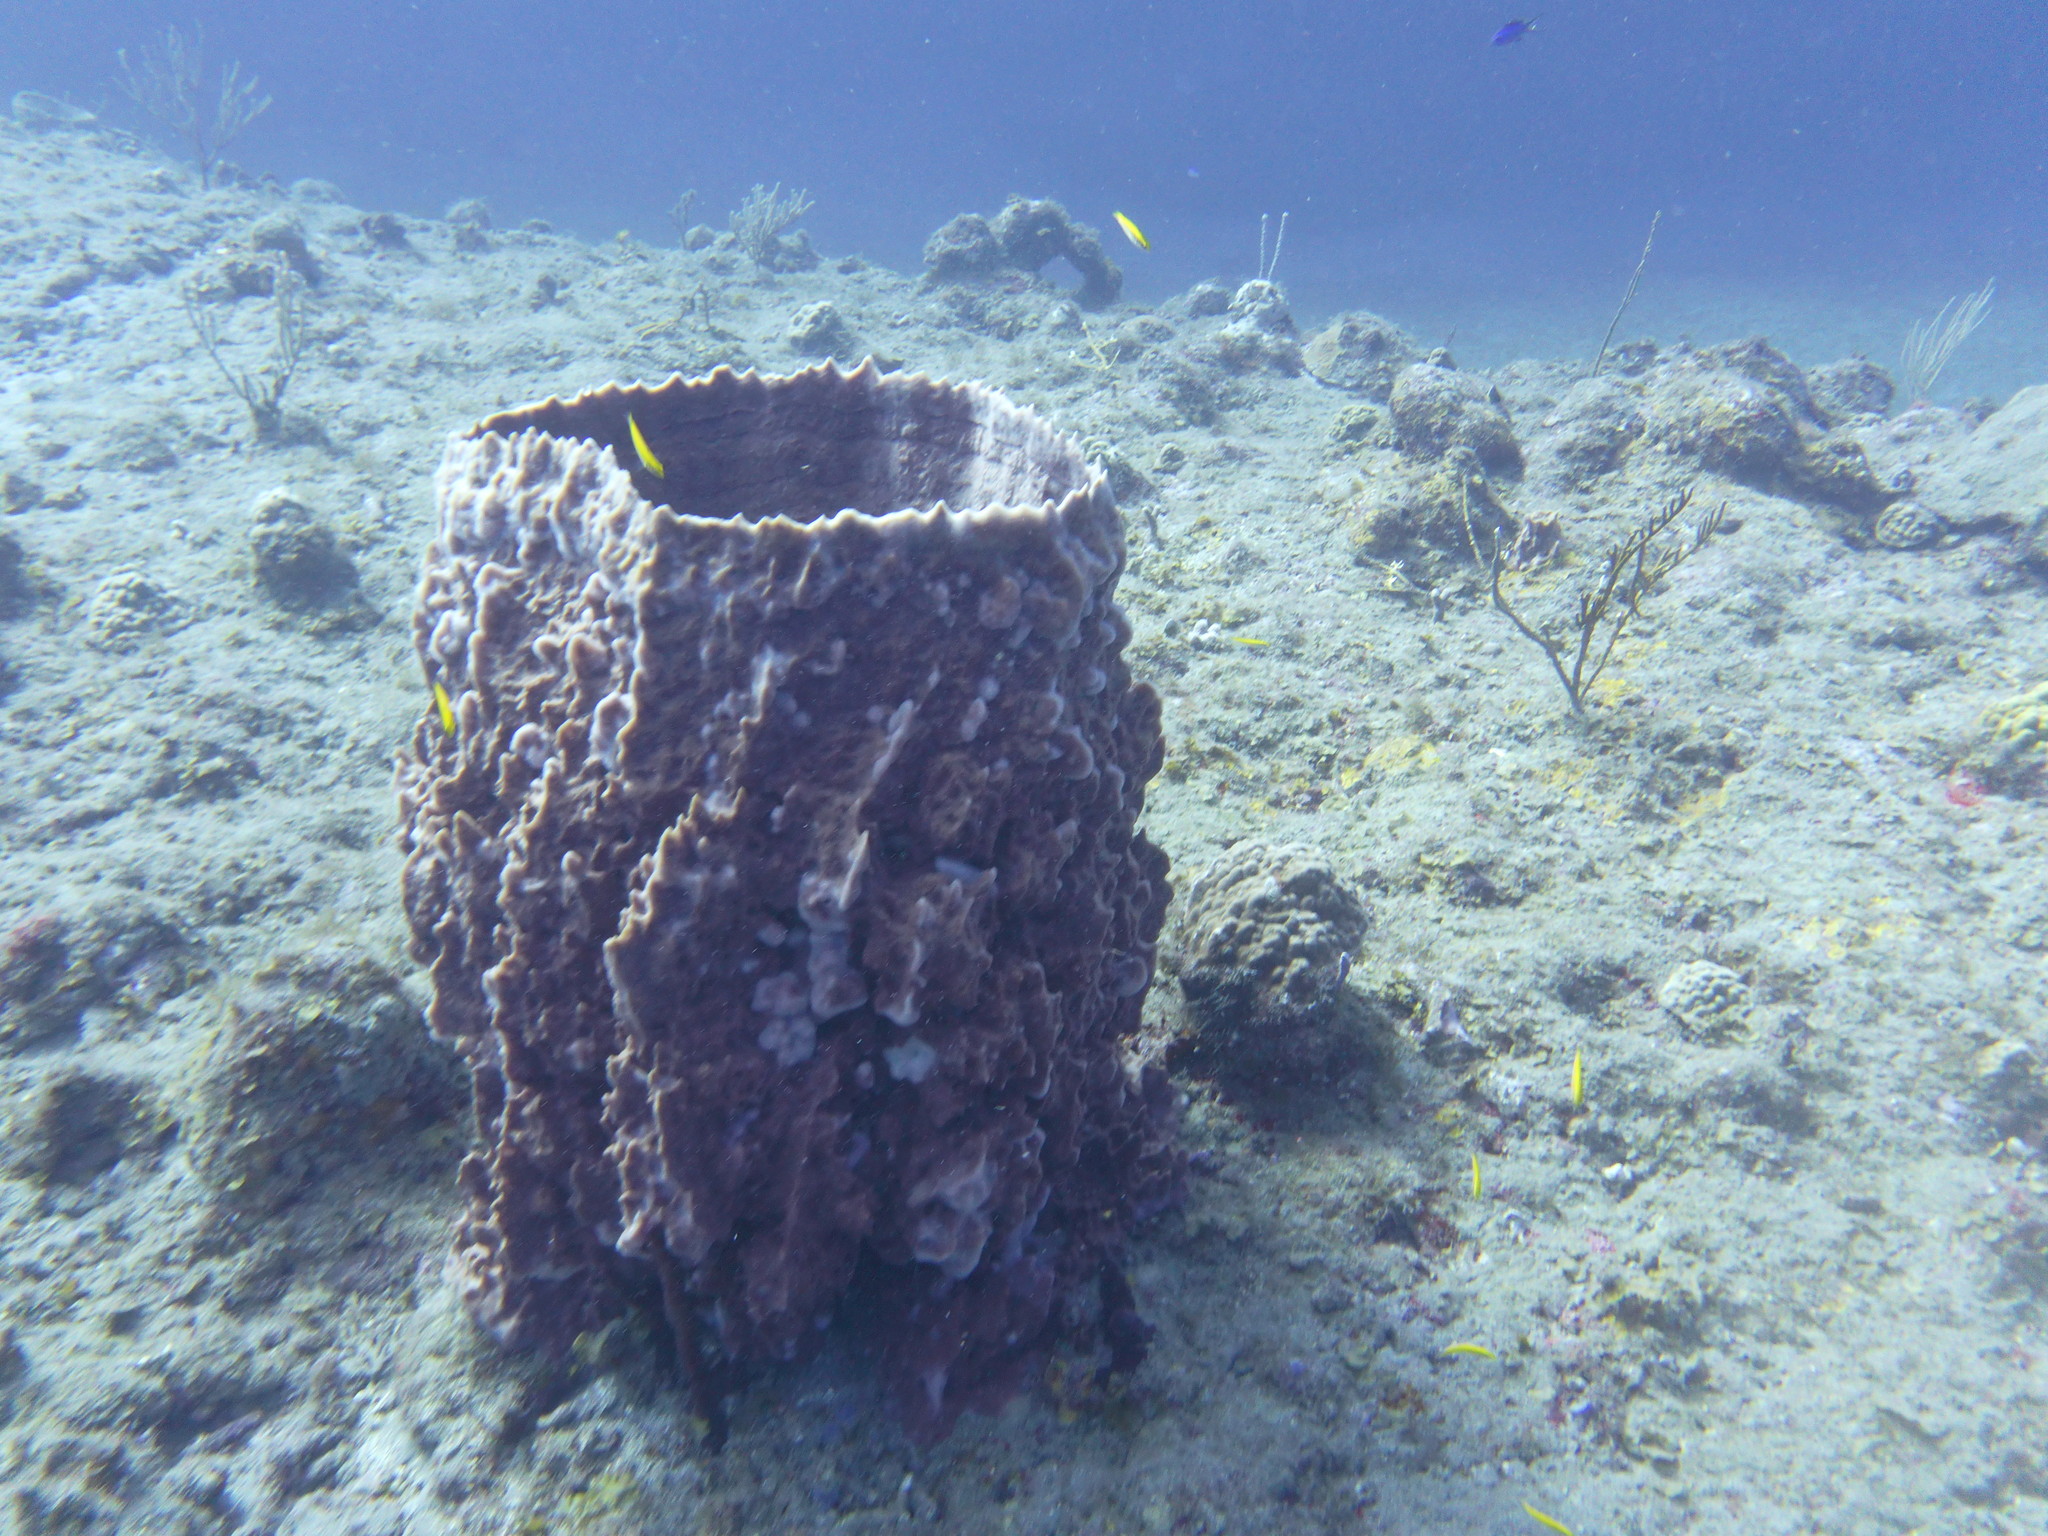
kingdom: Animalia
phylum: Porifera
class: Demospongiae
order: Haplosclerida
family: Petrosiidae
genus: Xestospongia
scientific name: Xestospongia muta
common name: Giant barrel sponge
